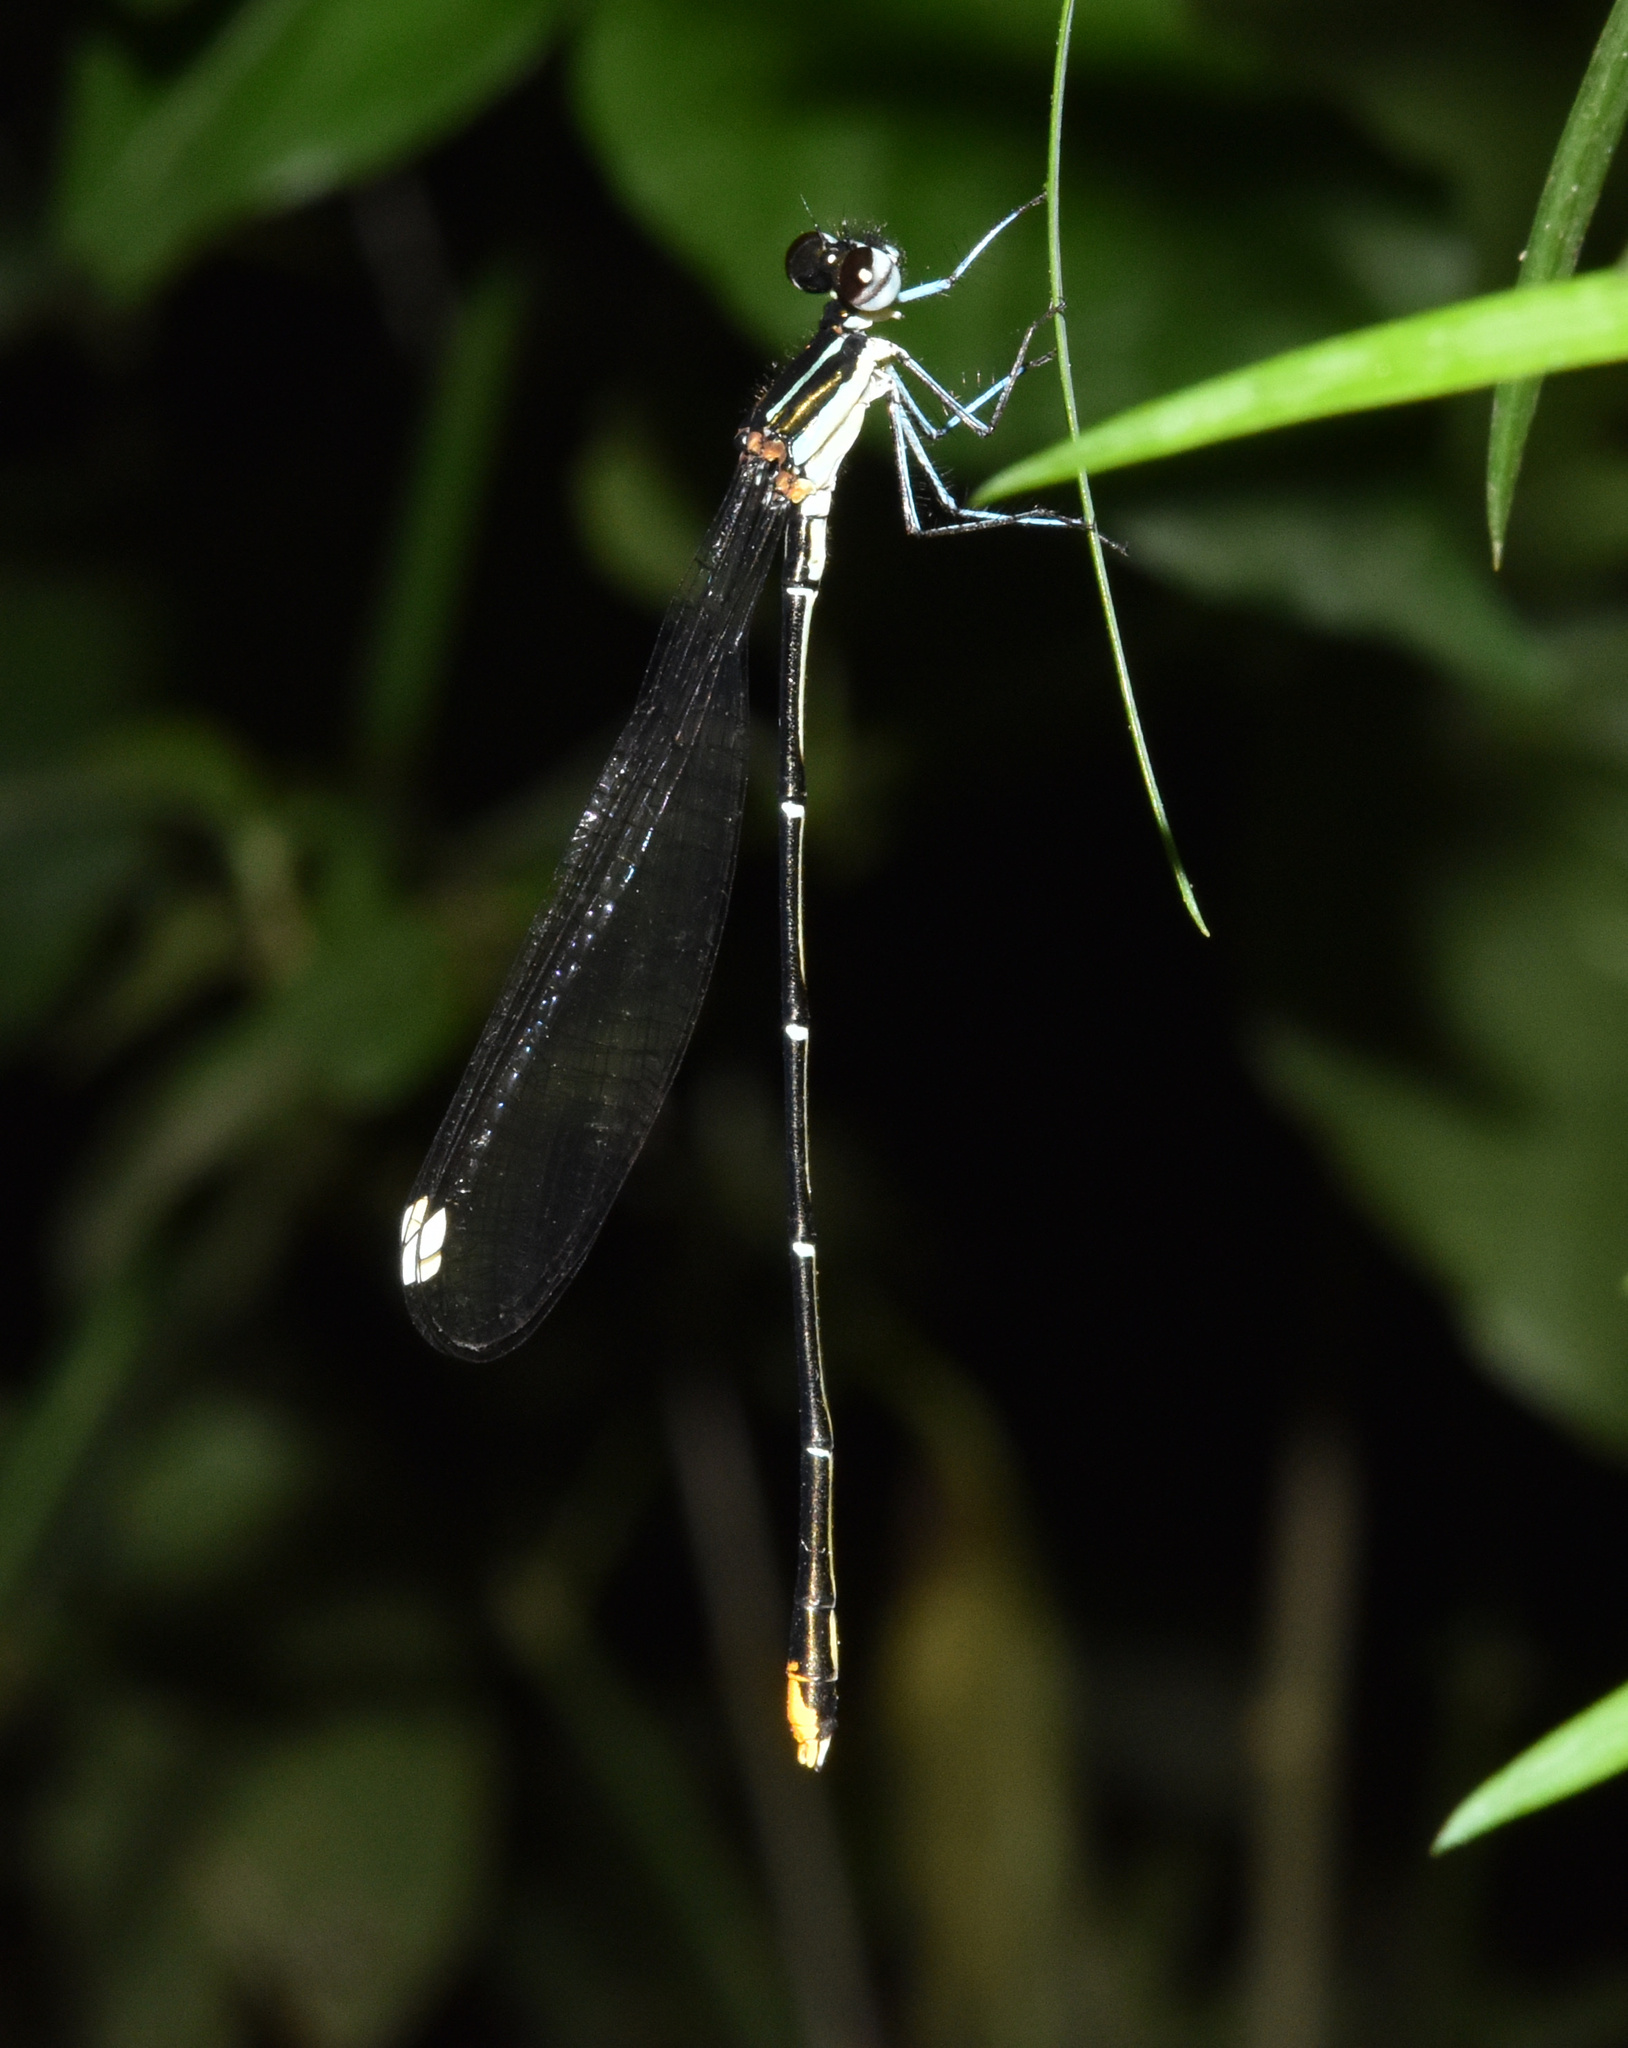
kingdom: Animalia
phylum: Arthropoda
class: Insecta
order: Odonata
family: Platycnemididae
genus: Allocnemis
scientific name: Allocnemis leucosticta
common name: Goldtail
